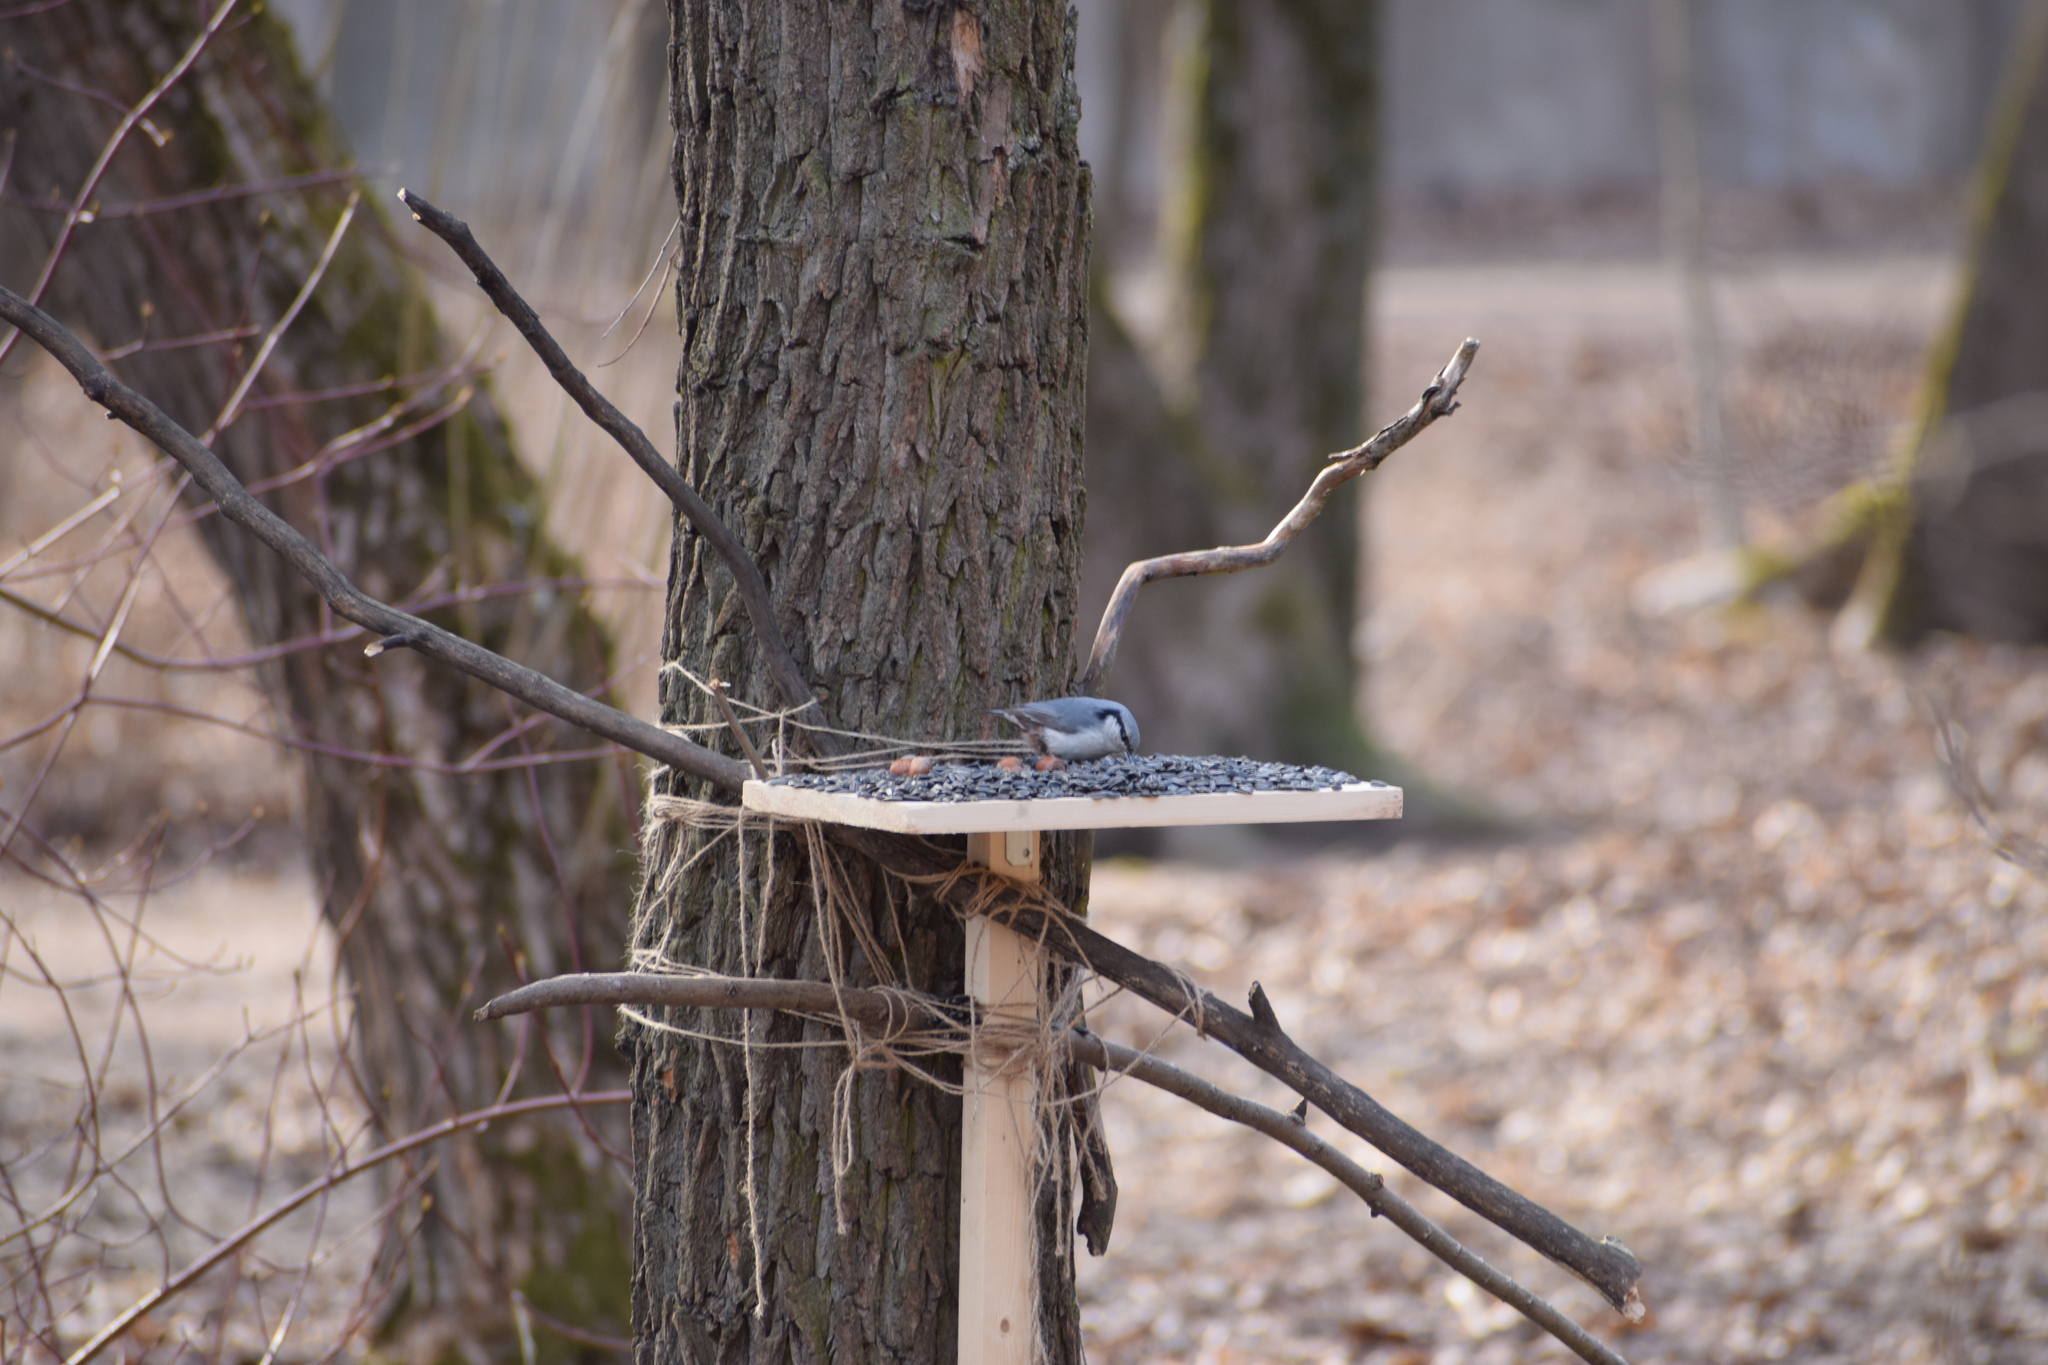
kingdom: Animalia
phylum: Chordata
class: Aves
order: Passeriformes
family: Sittidae
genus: Sitta
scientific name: Sitta europaea
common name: Eurasian nuthatch
